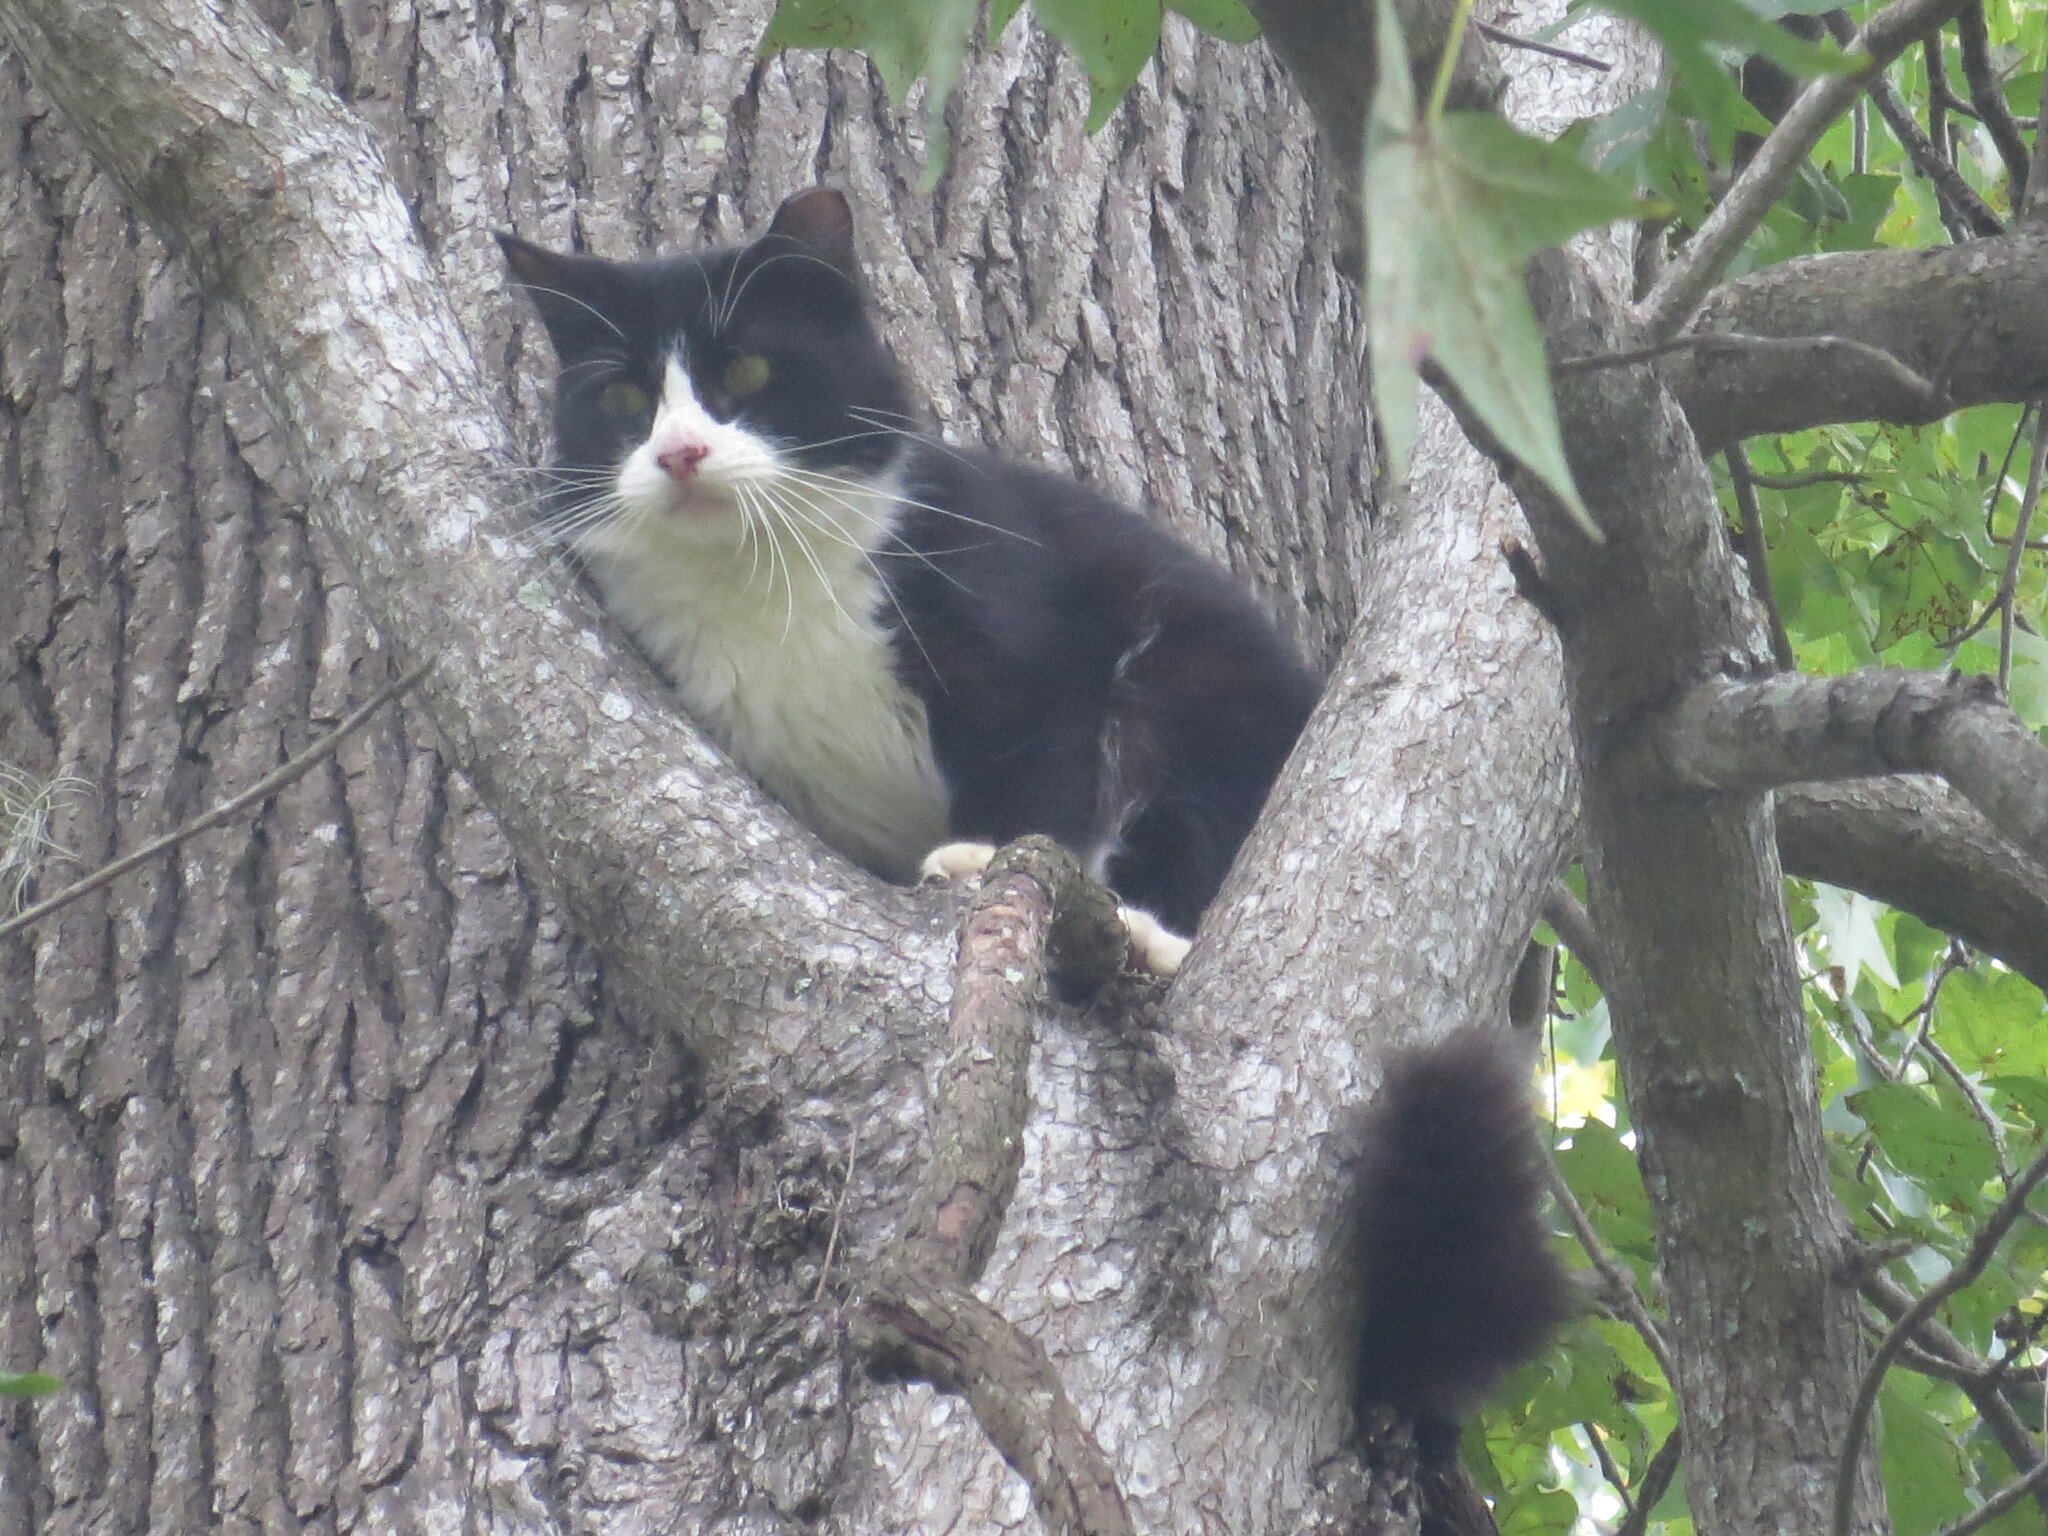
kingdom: Animalia
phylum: Chordata
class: Mammalia
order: Carnivora
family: Felidae
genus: Felis
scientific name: Felis catus
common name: Domestic cat
